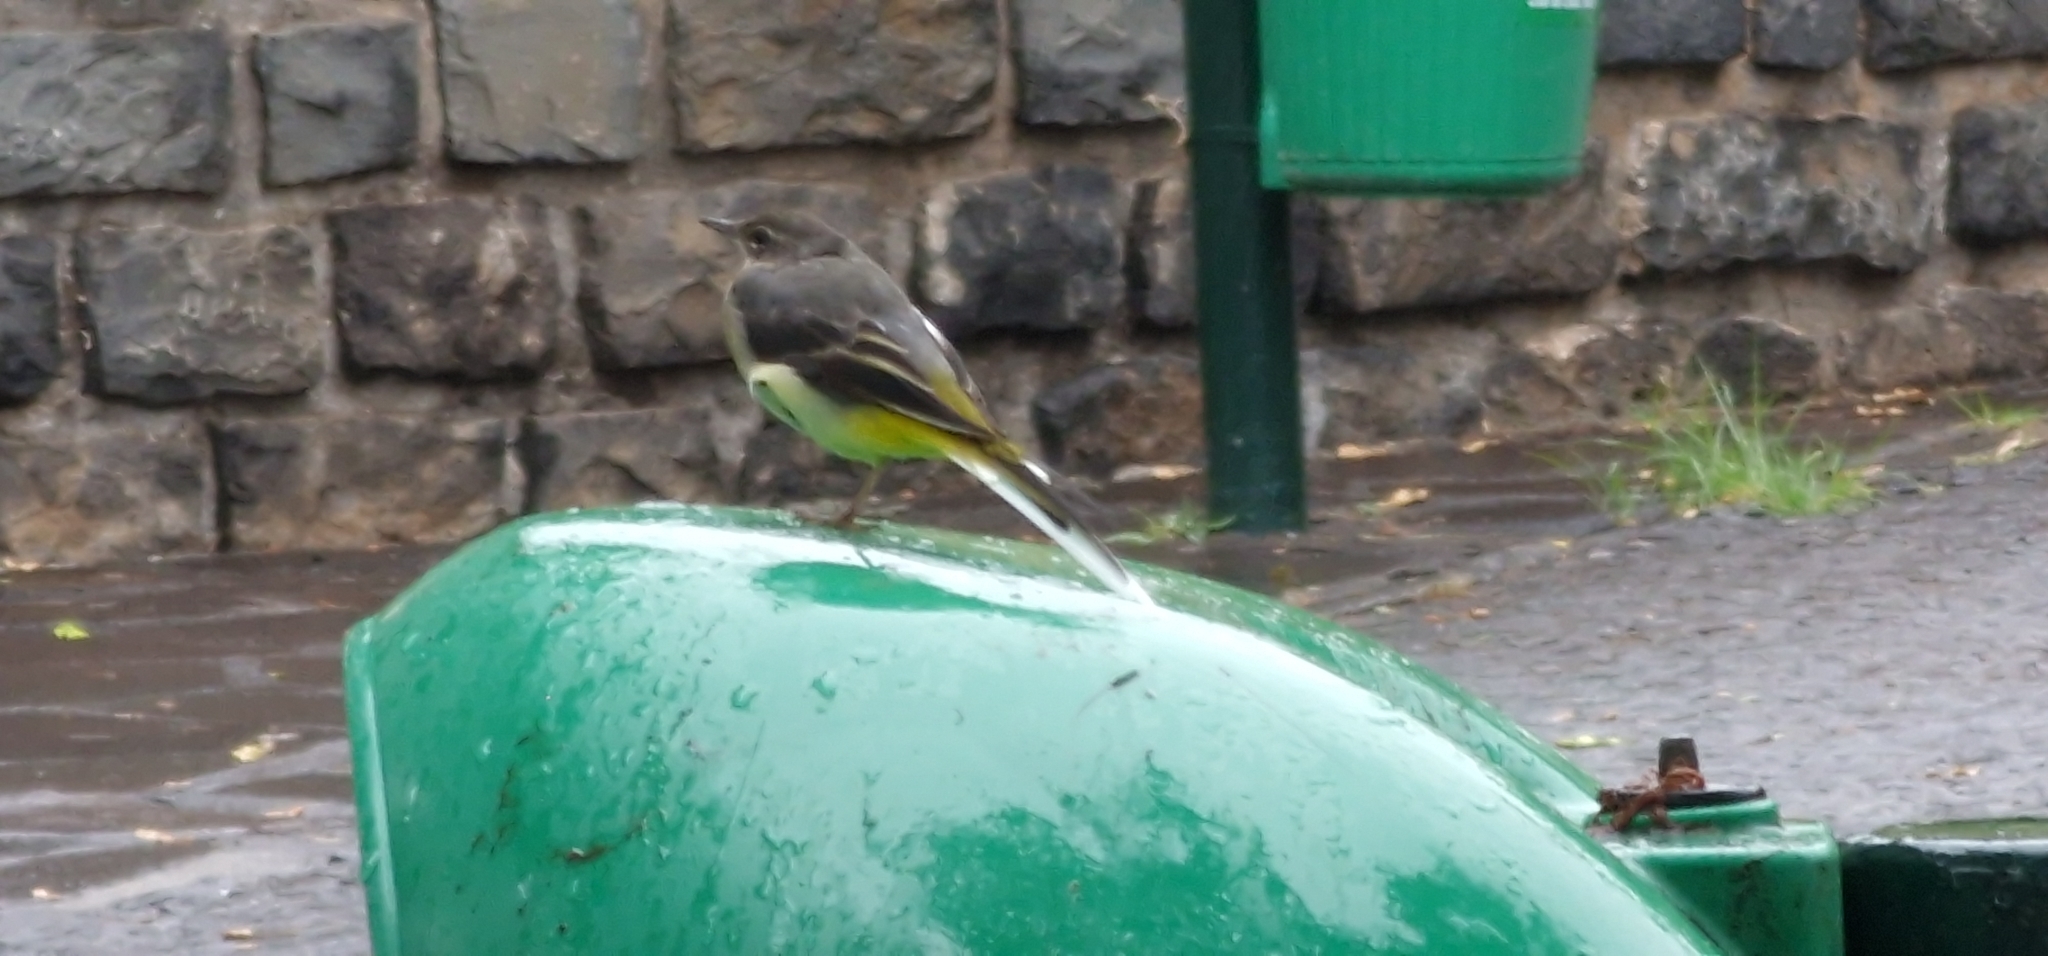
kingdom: Animalia
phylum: Chordata
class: Aves
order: Passeriformes
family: Motacillidae
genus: Motacilla
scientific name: Motacilla cinerea
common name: Grey wagtail
